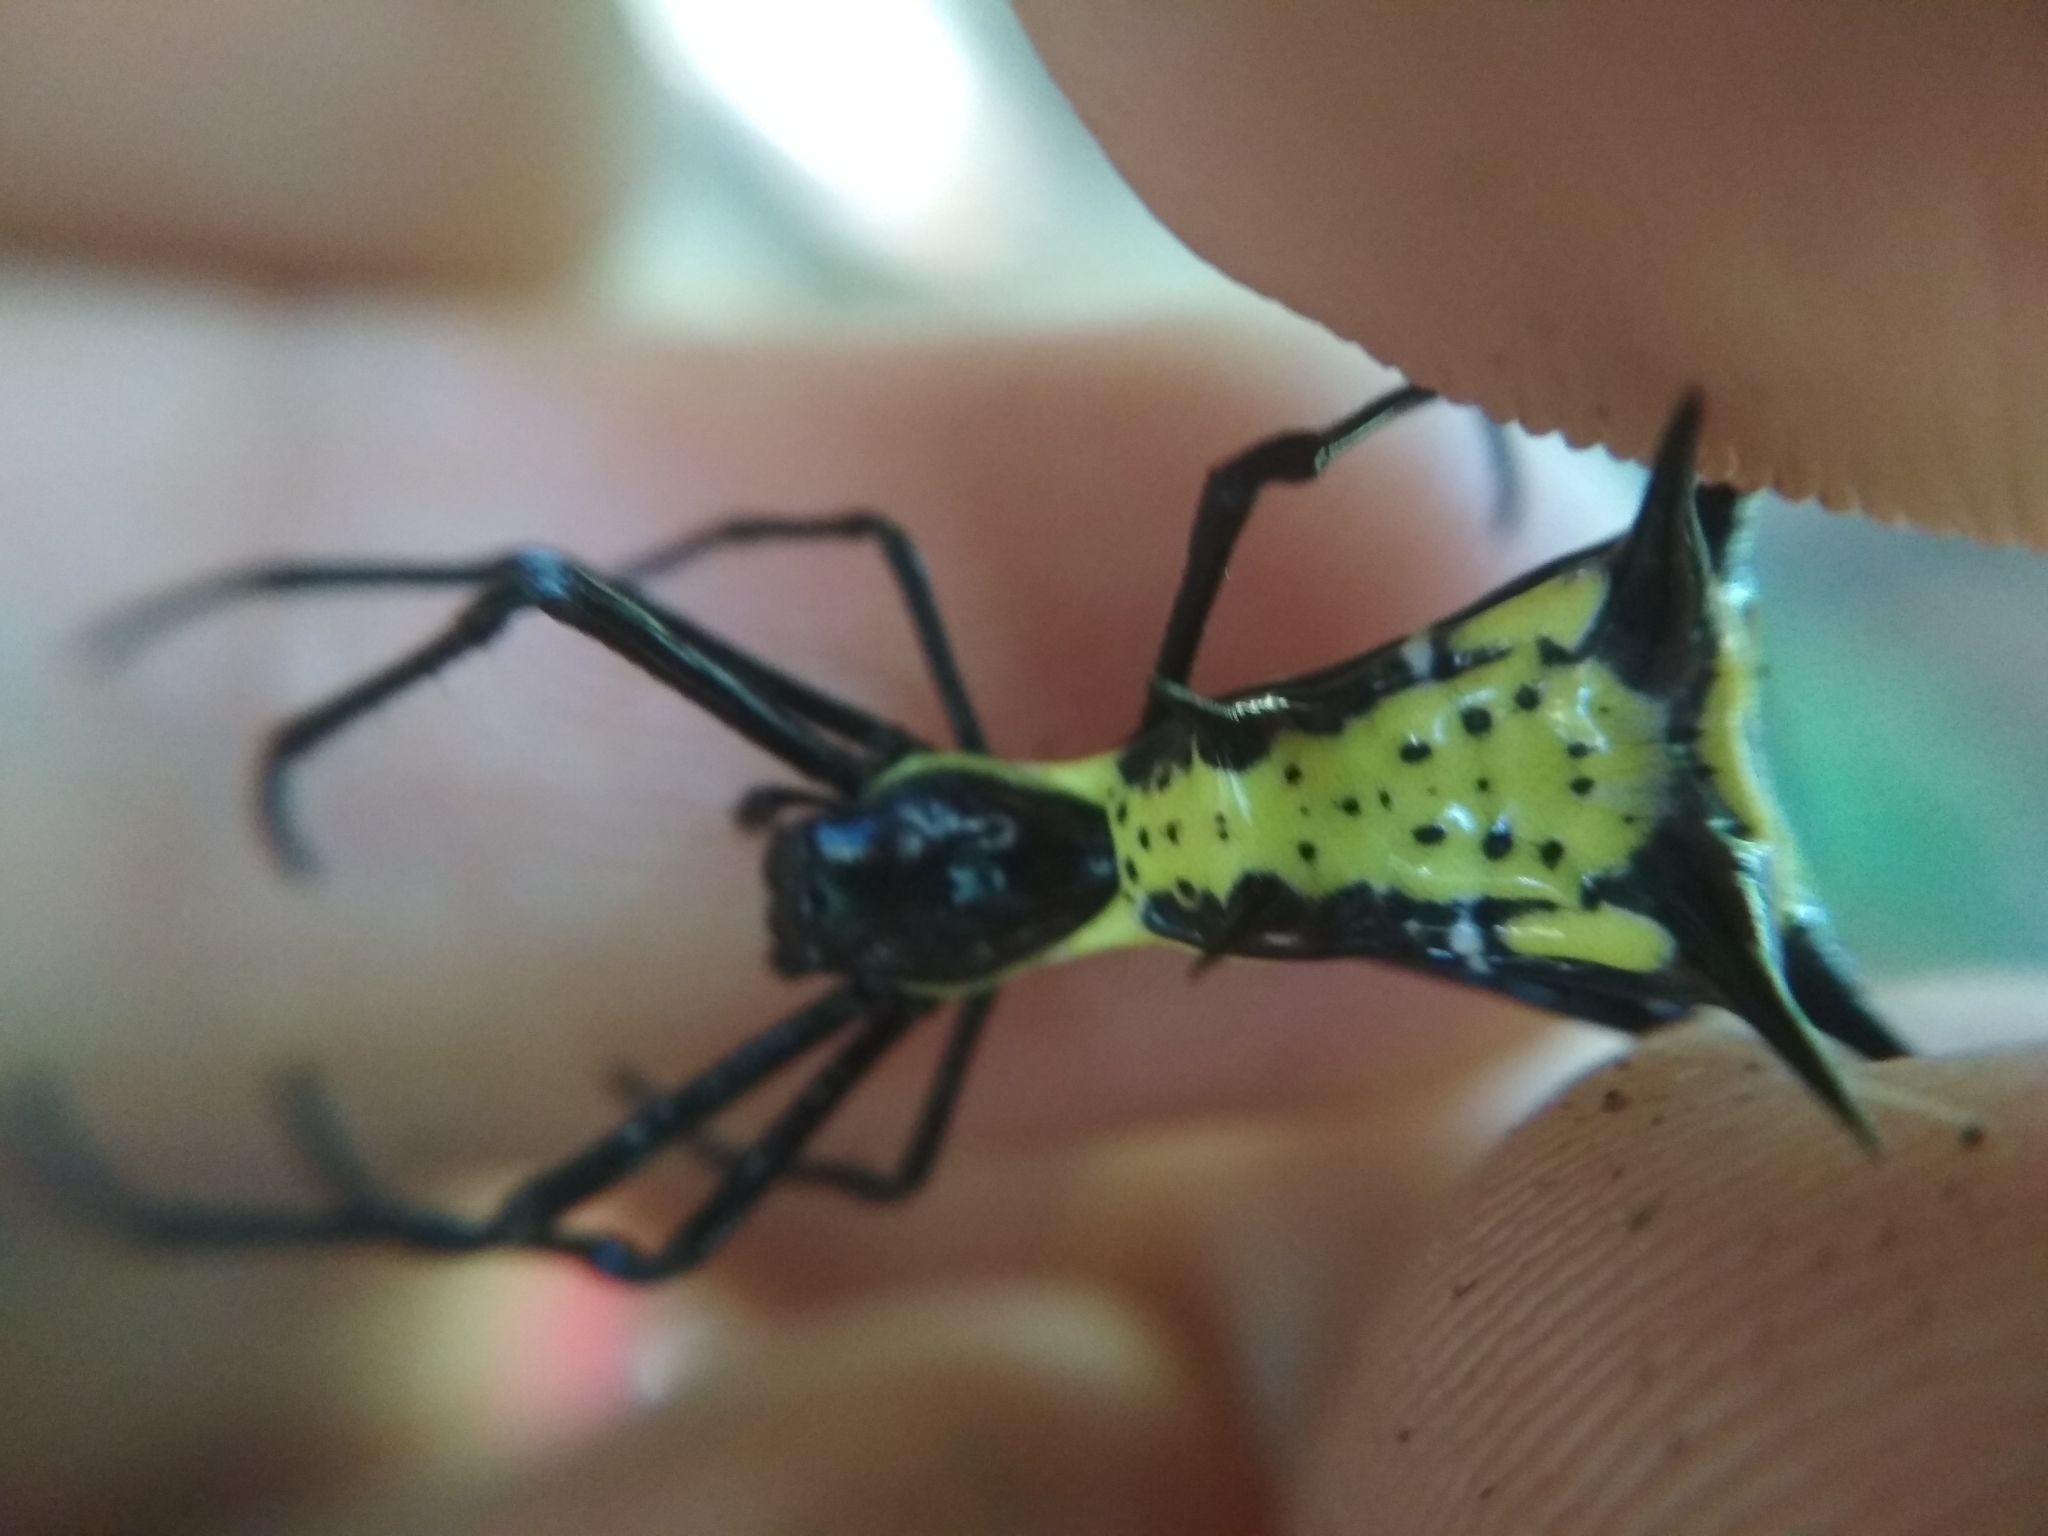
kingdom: Animalia
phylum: Arthropoda
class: Arachnida
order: Araneae
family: Araneidae
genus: Micrathena
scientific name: Micrathena vigorsi
